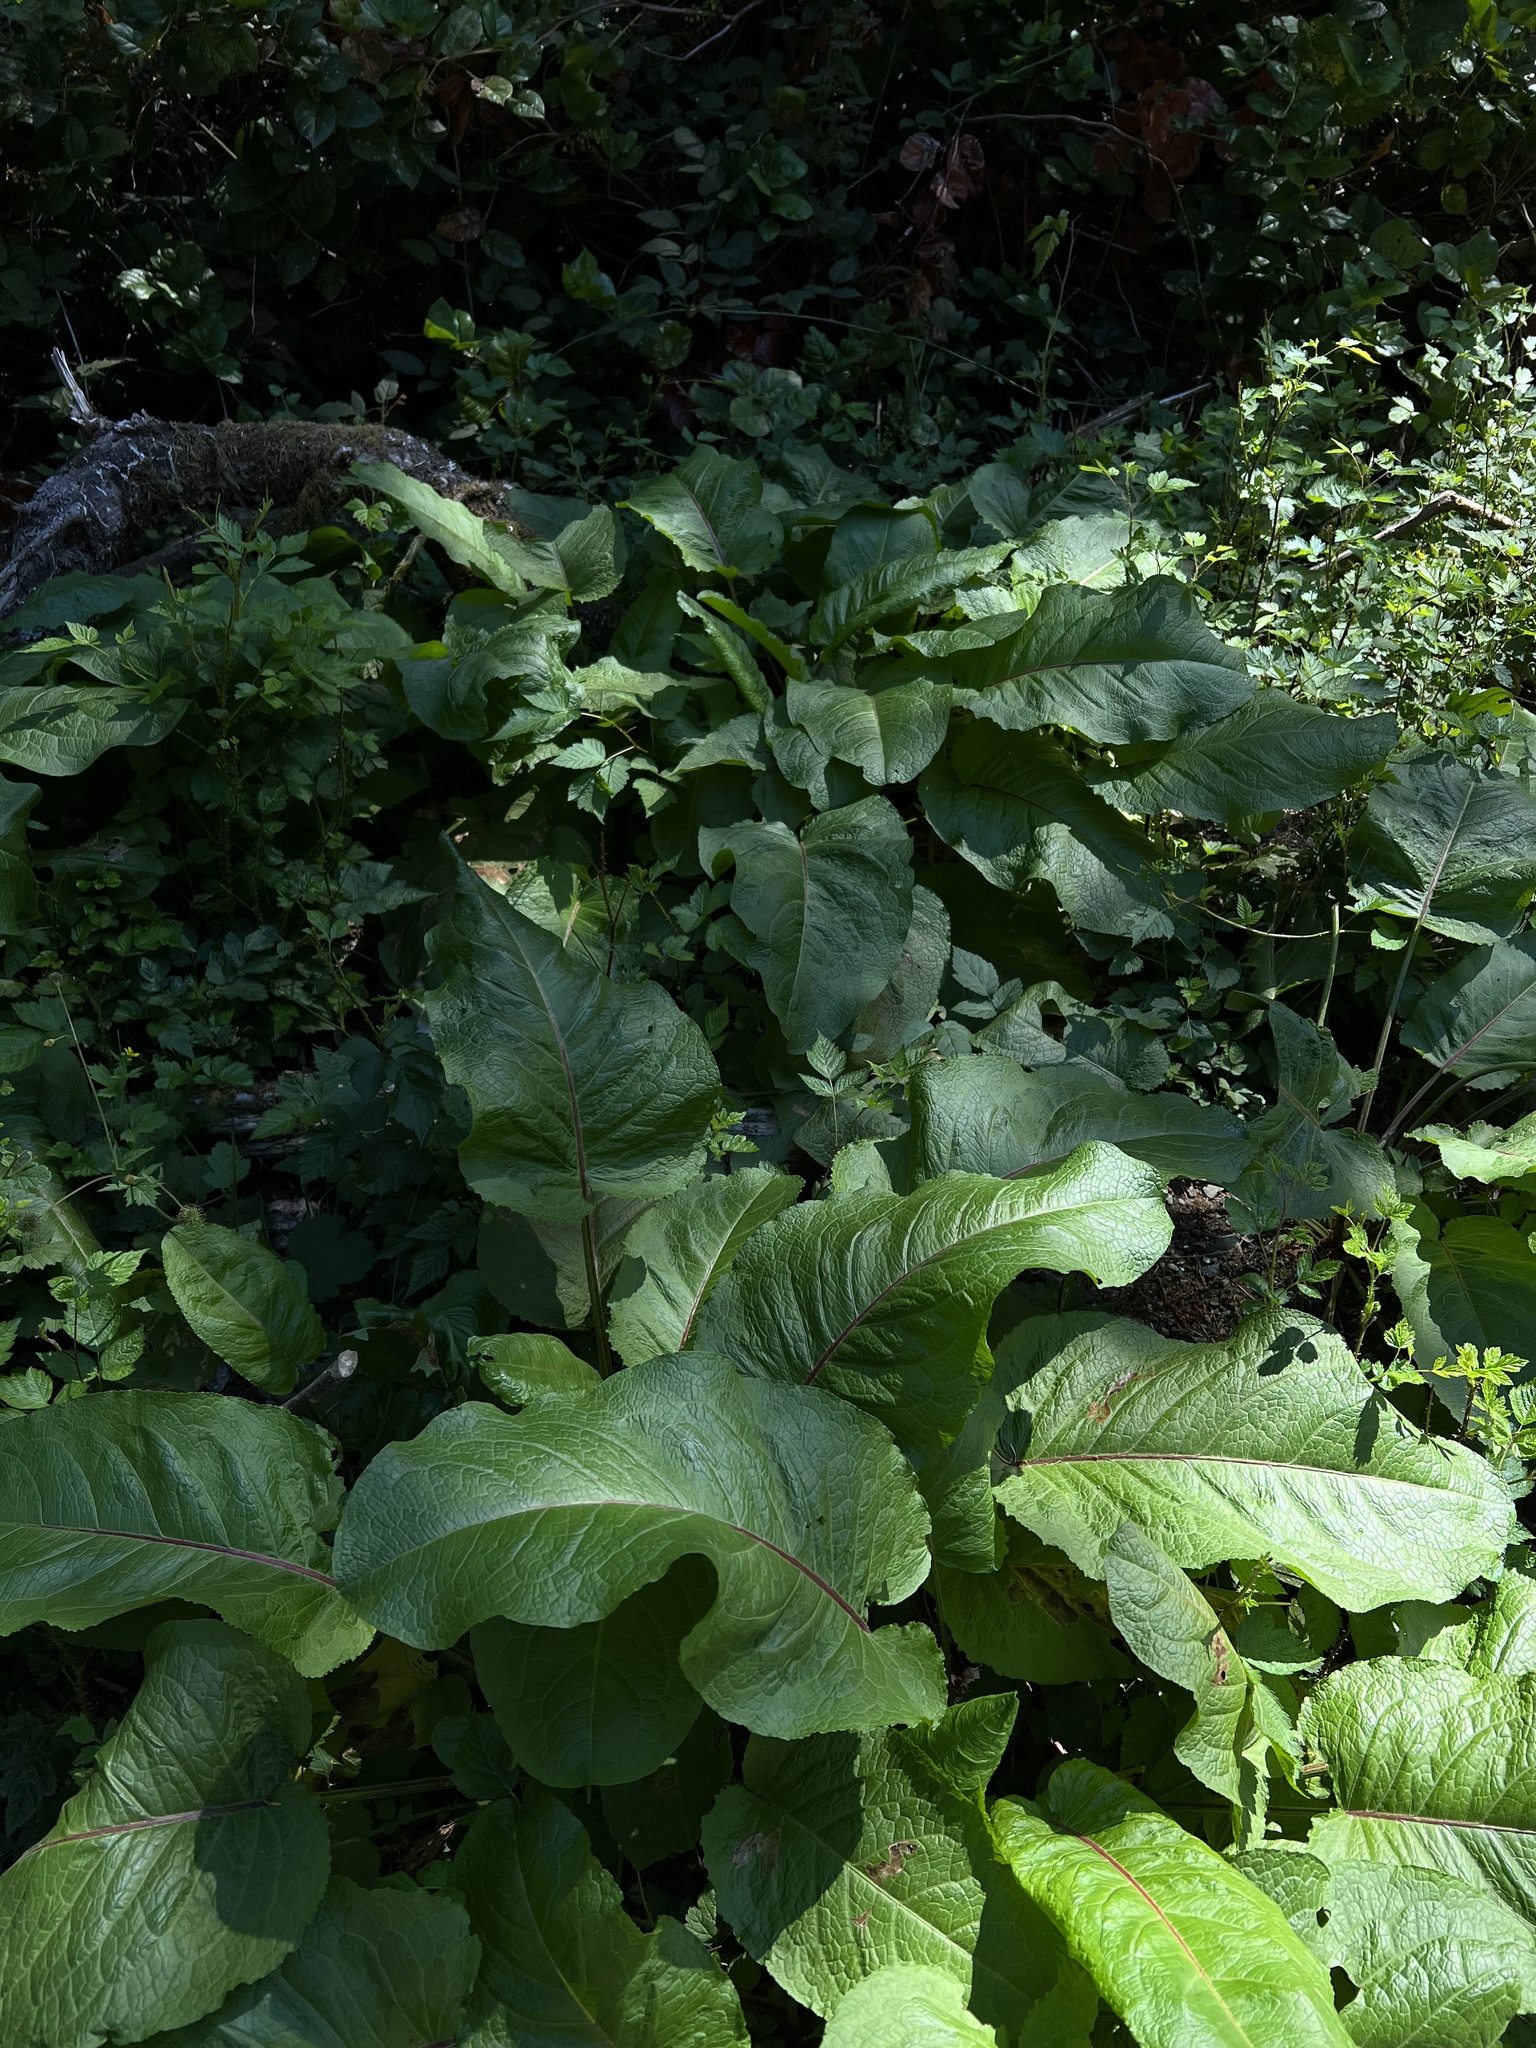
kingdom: Plantae
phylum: Tracheophyta
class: Magnoliopsida
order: Caryophyllales
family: Polygonaceae
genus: Rumex
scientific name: Rumex obtusifolius
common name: Bitter dock
